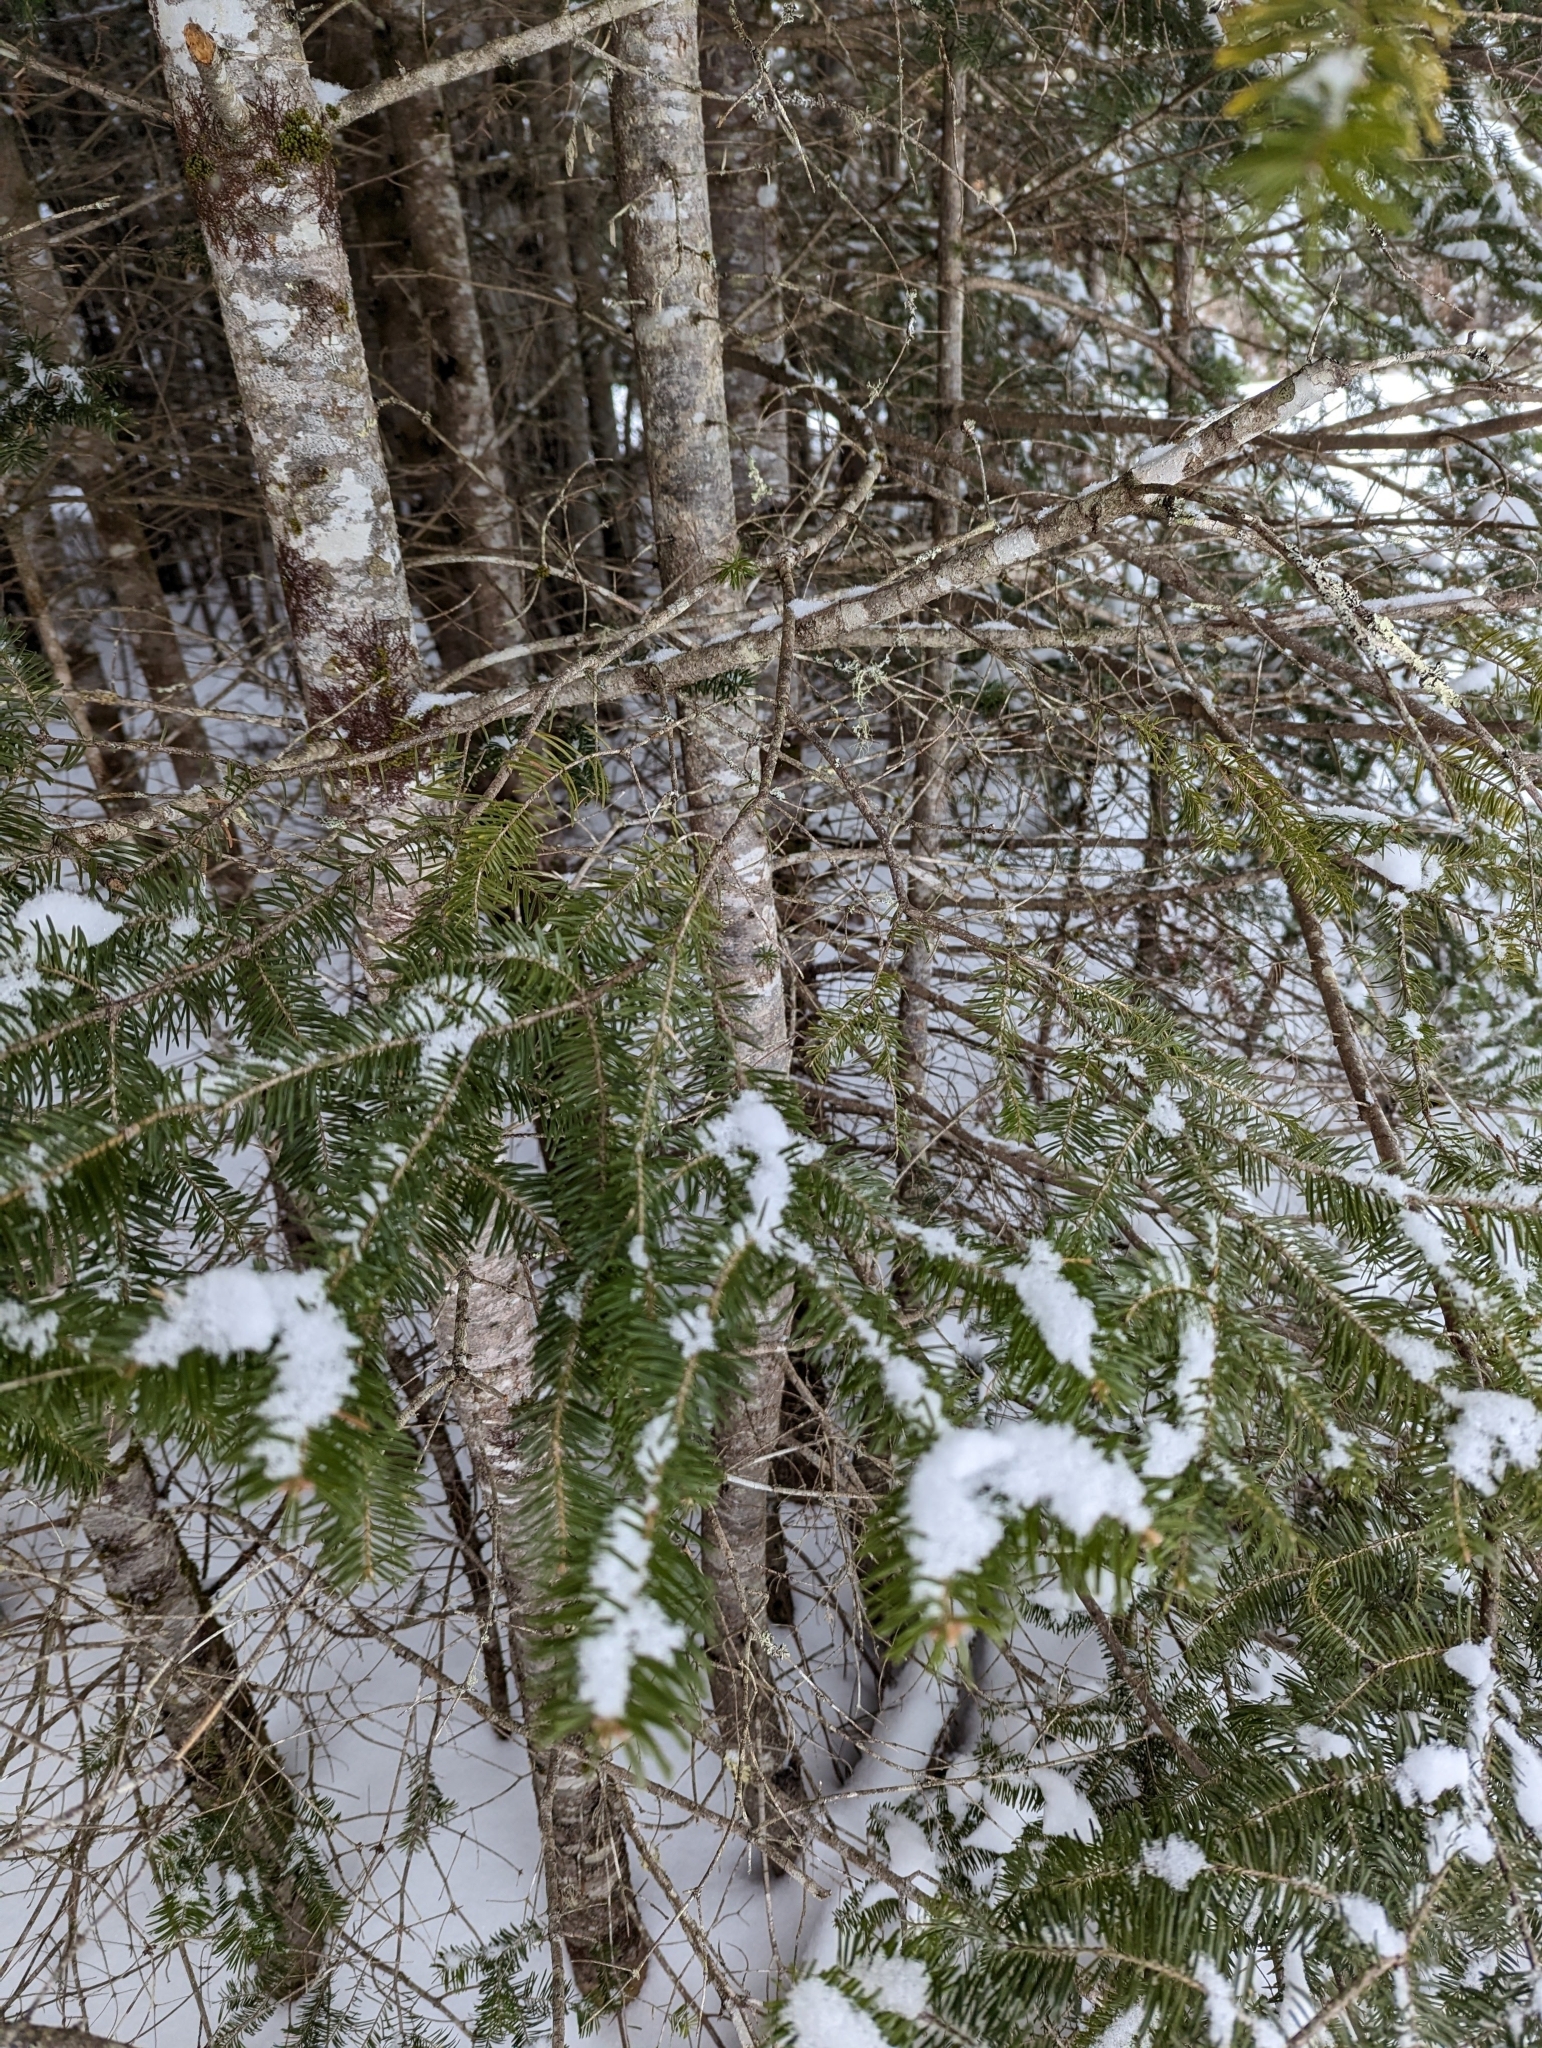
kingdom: Plantae
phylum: Tracheophyta
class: Pinopsida
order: Pinales
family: Pinaceae
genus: Abies
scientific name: Abies balsamea
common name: Balsam fir
